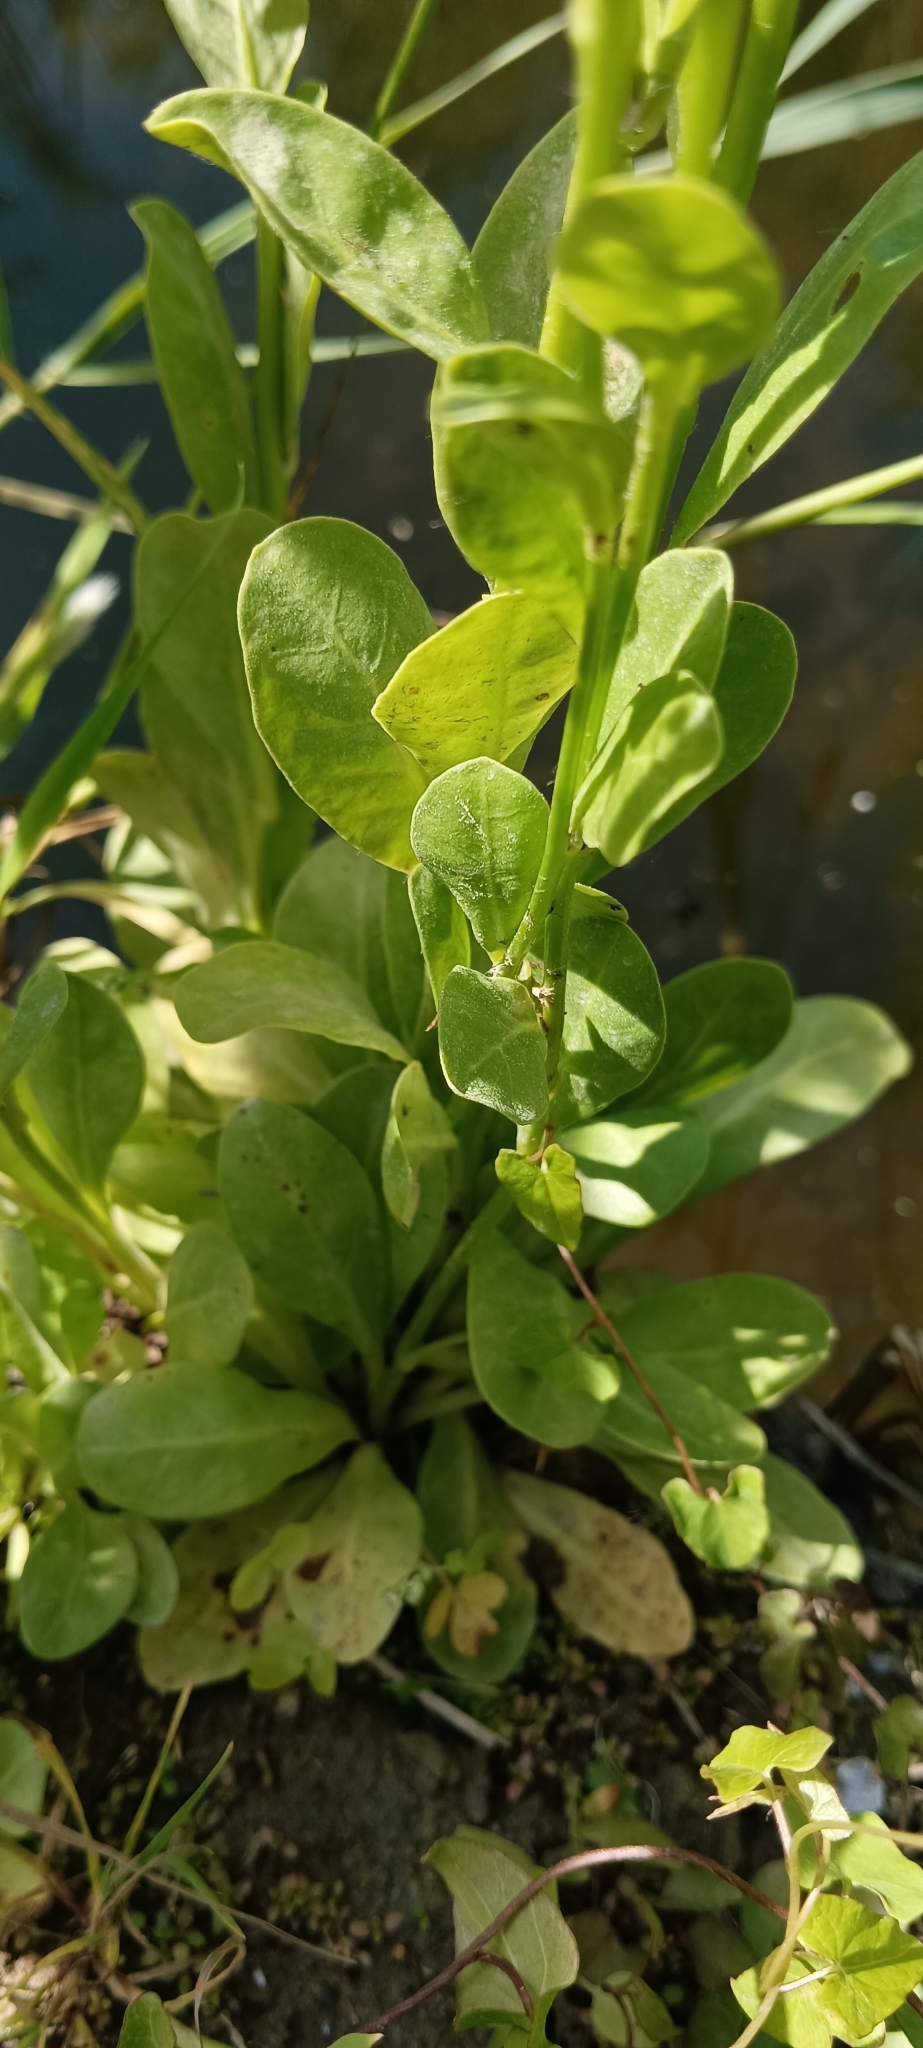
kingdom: Plantae
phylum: Tracheophyta
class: Magnoliopsida
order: Ericales
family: Primulaceae
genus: Samolus
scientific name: Samolus valerandi
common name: Brookweed
